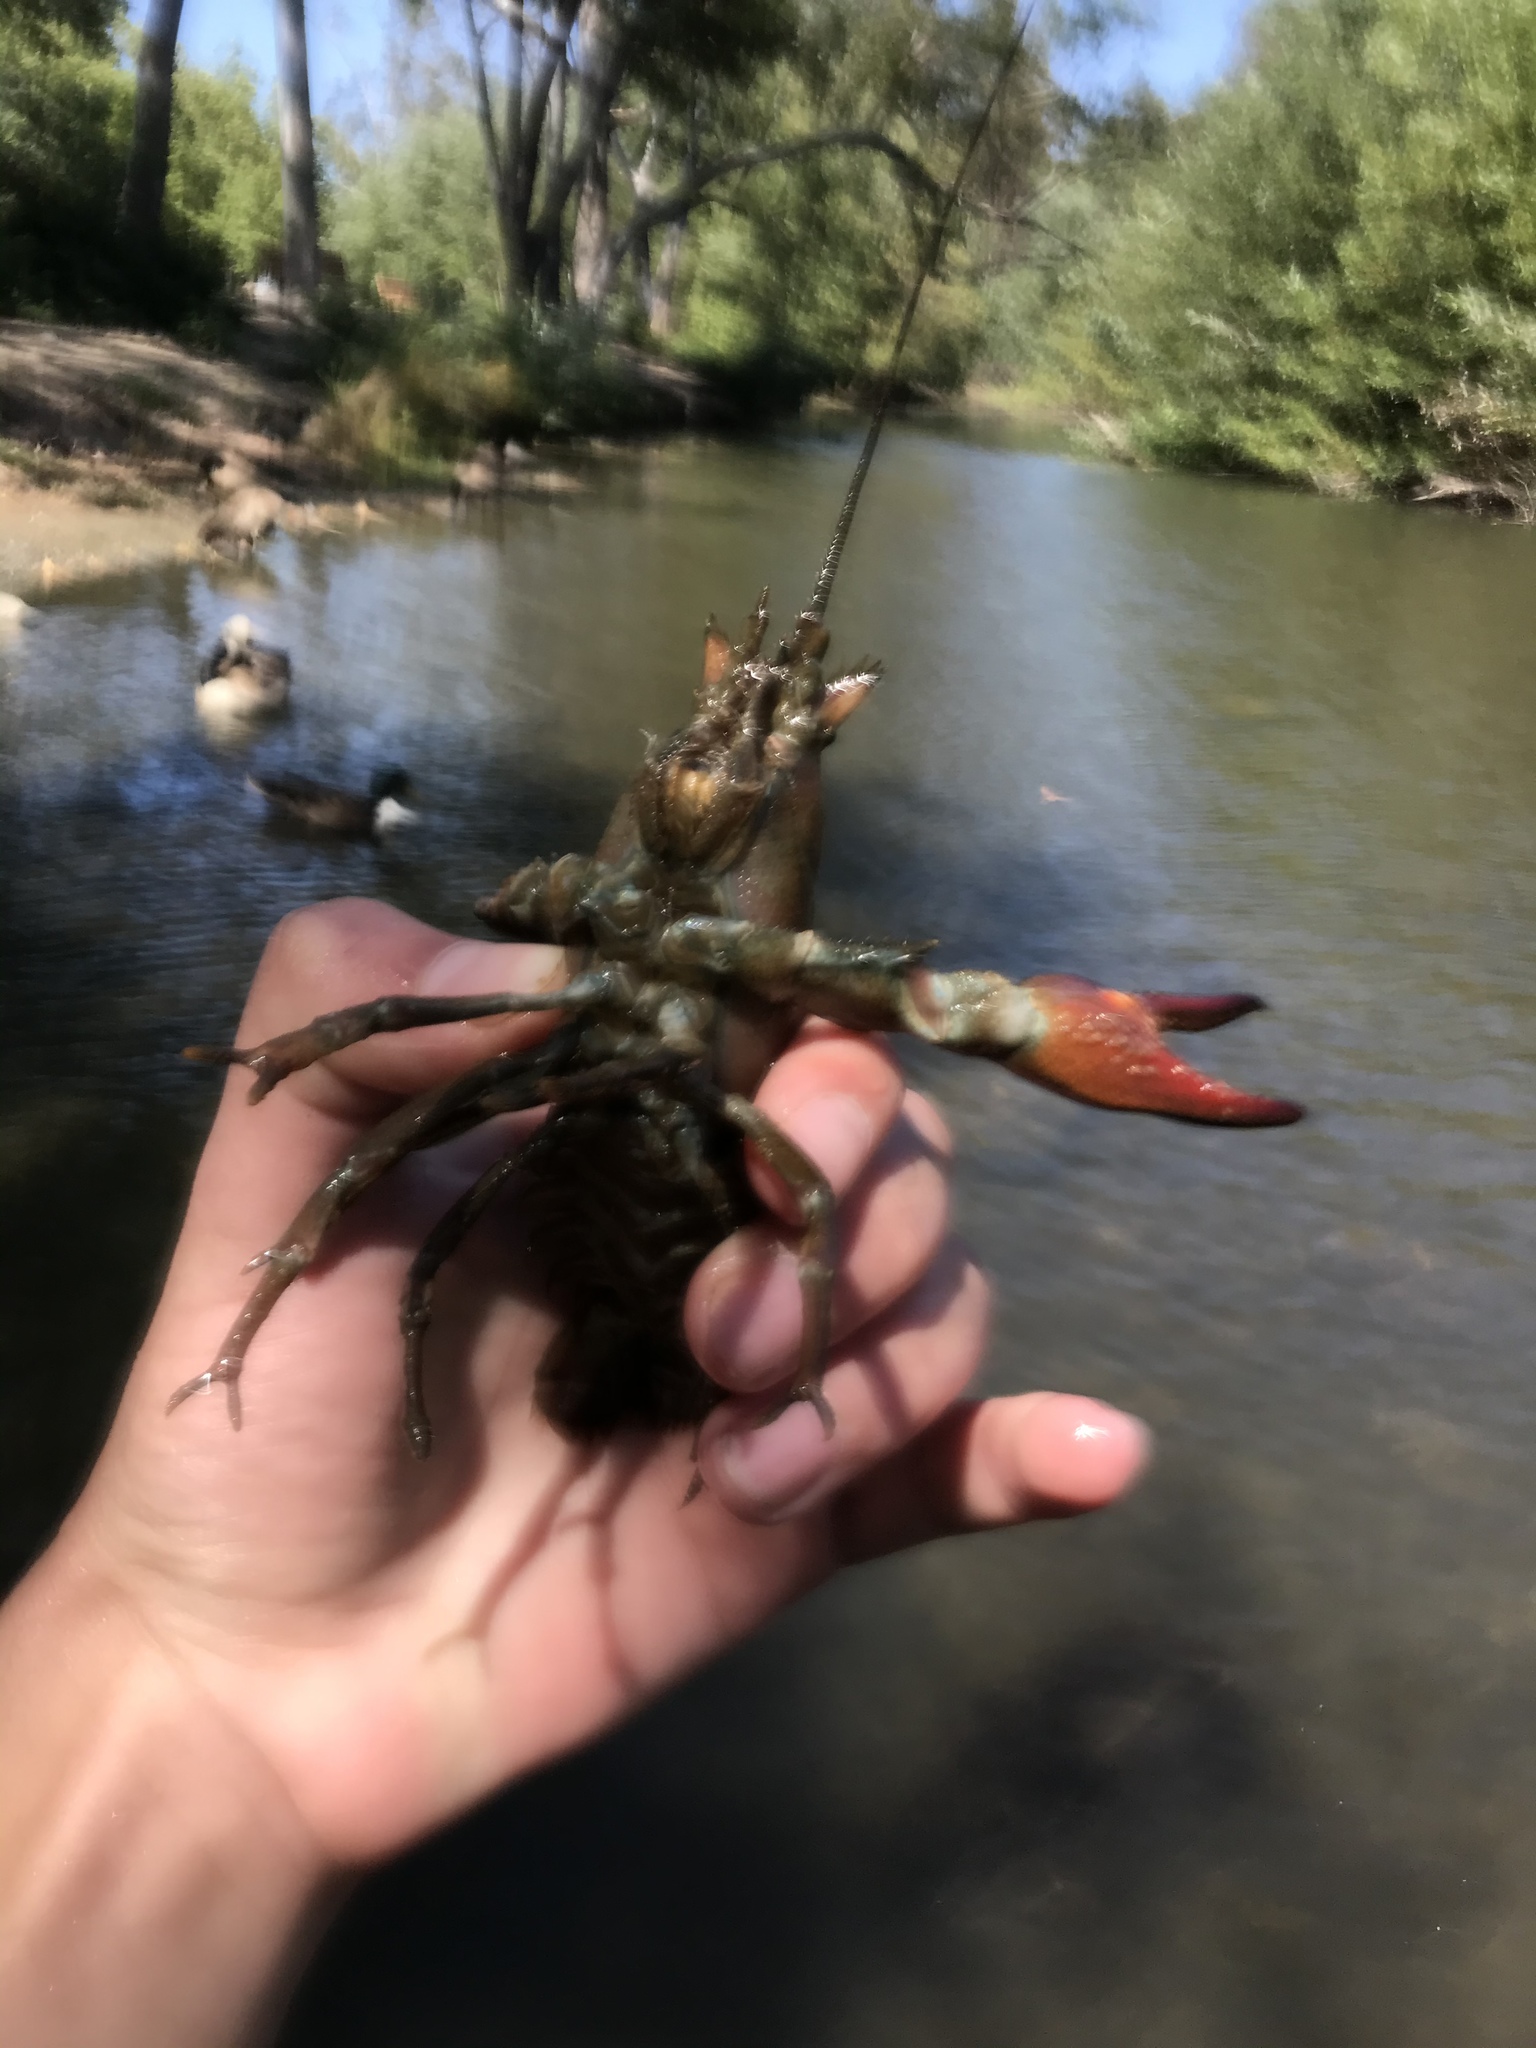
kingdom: Animalia
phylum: Arthropoda
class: Malacostraca
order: Decapoda
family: Astacidae
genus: Pacifastacus
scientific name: Pacifastacus leniusculus
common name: Signal crayfish
